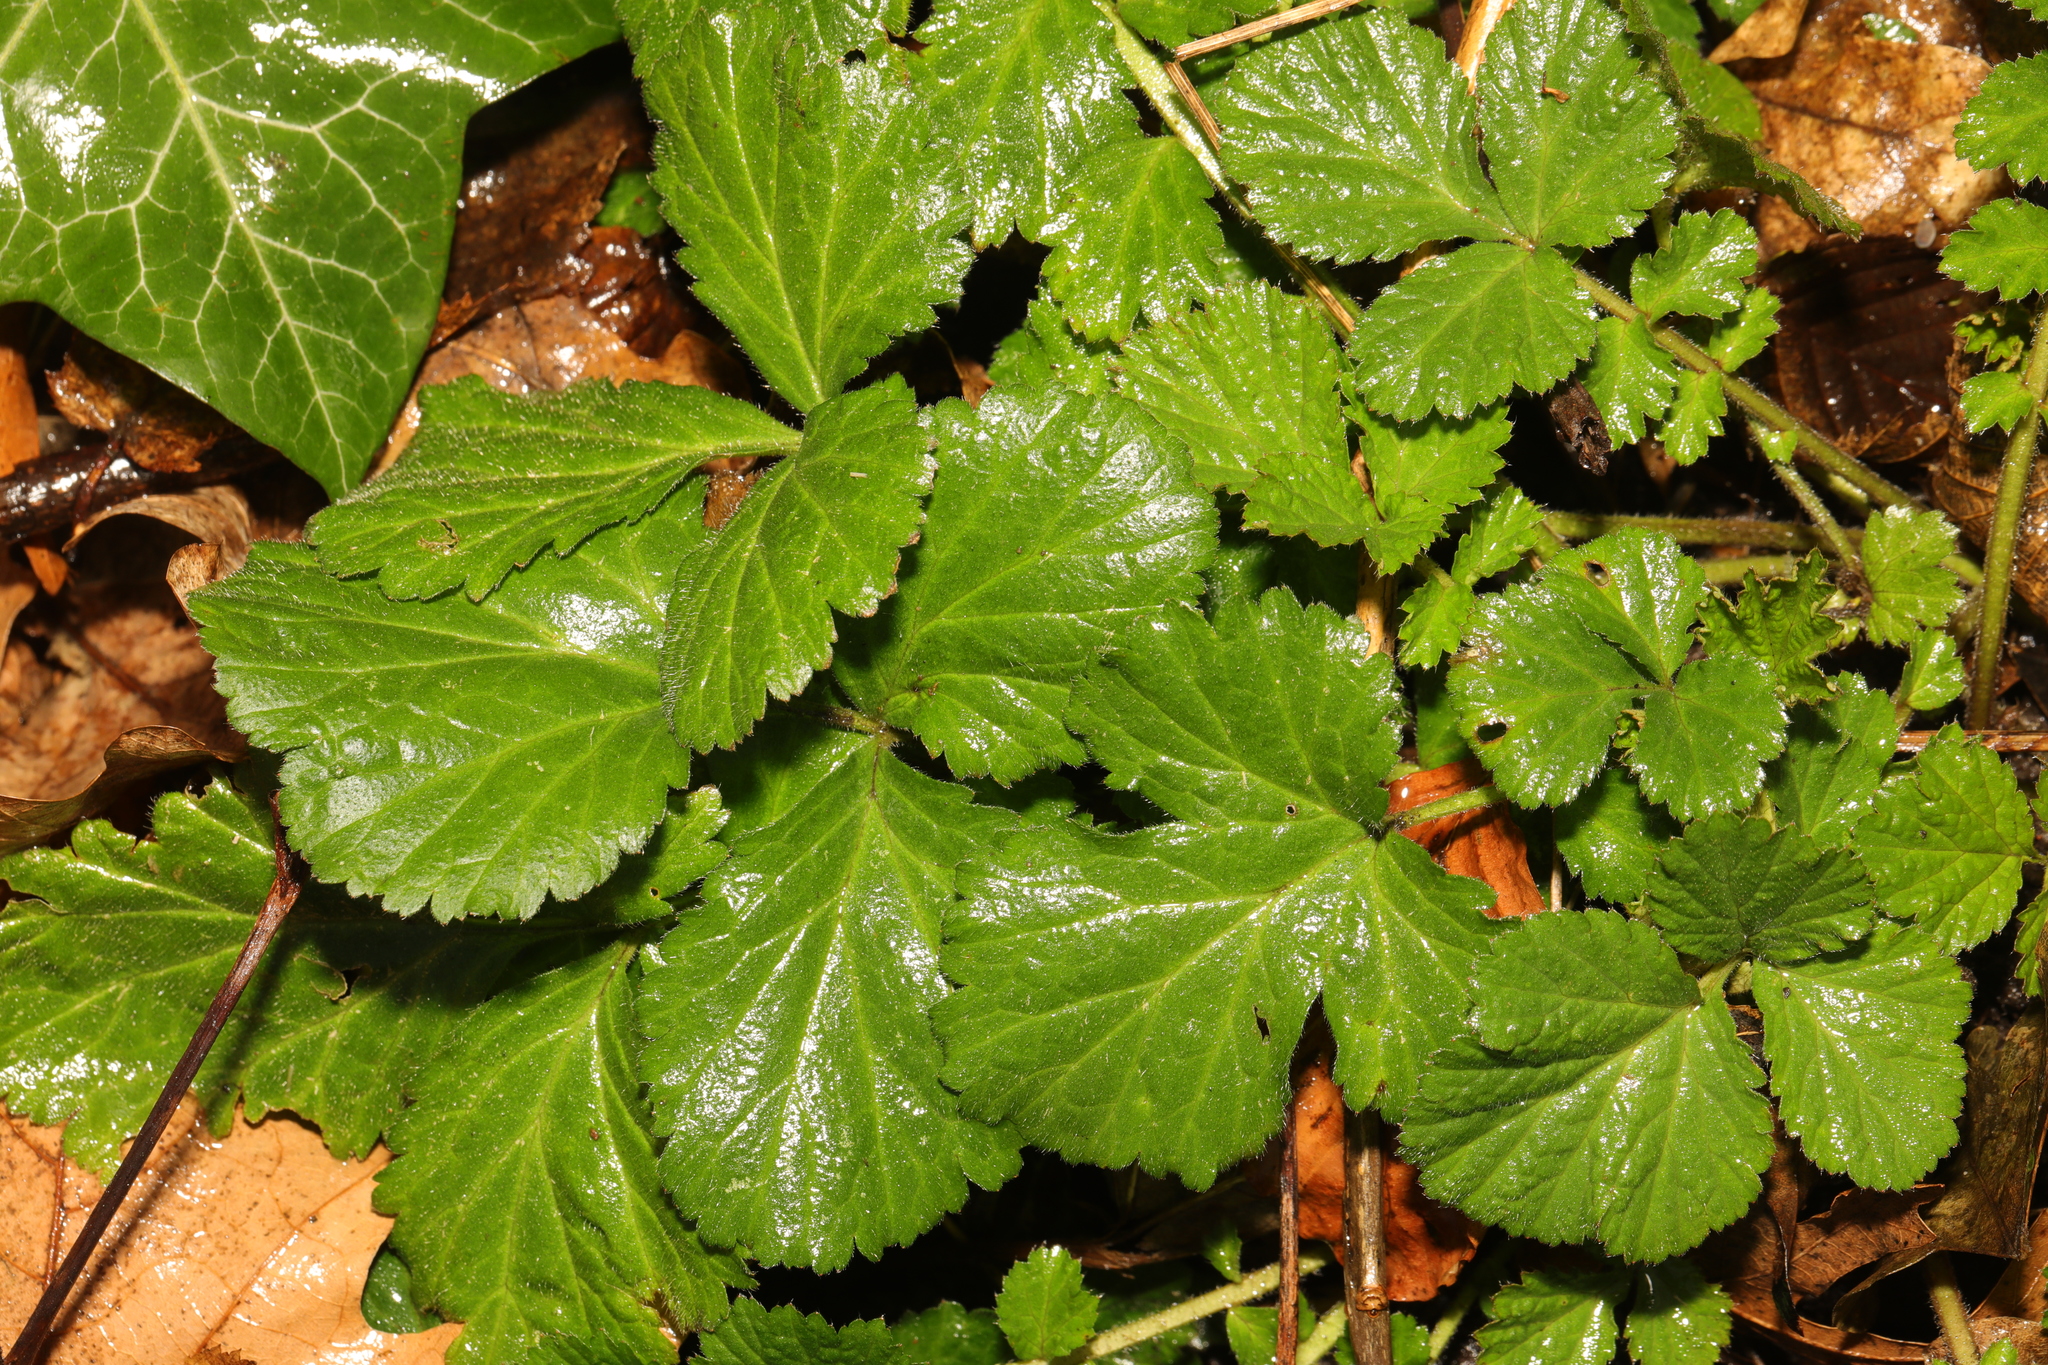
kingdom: Plantae
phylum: Tracheophyta
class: Magnoliopsida
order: Rosales
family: Rosaceae
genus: Geum
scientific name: Geum urbanum
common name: Wood avens
